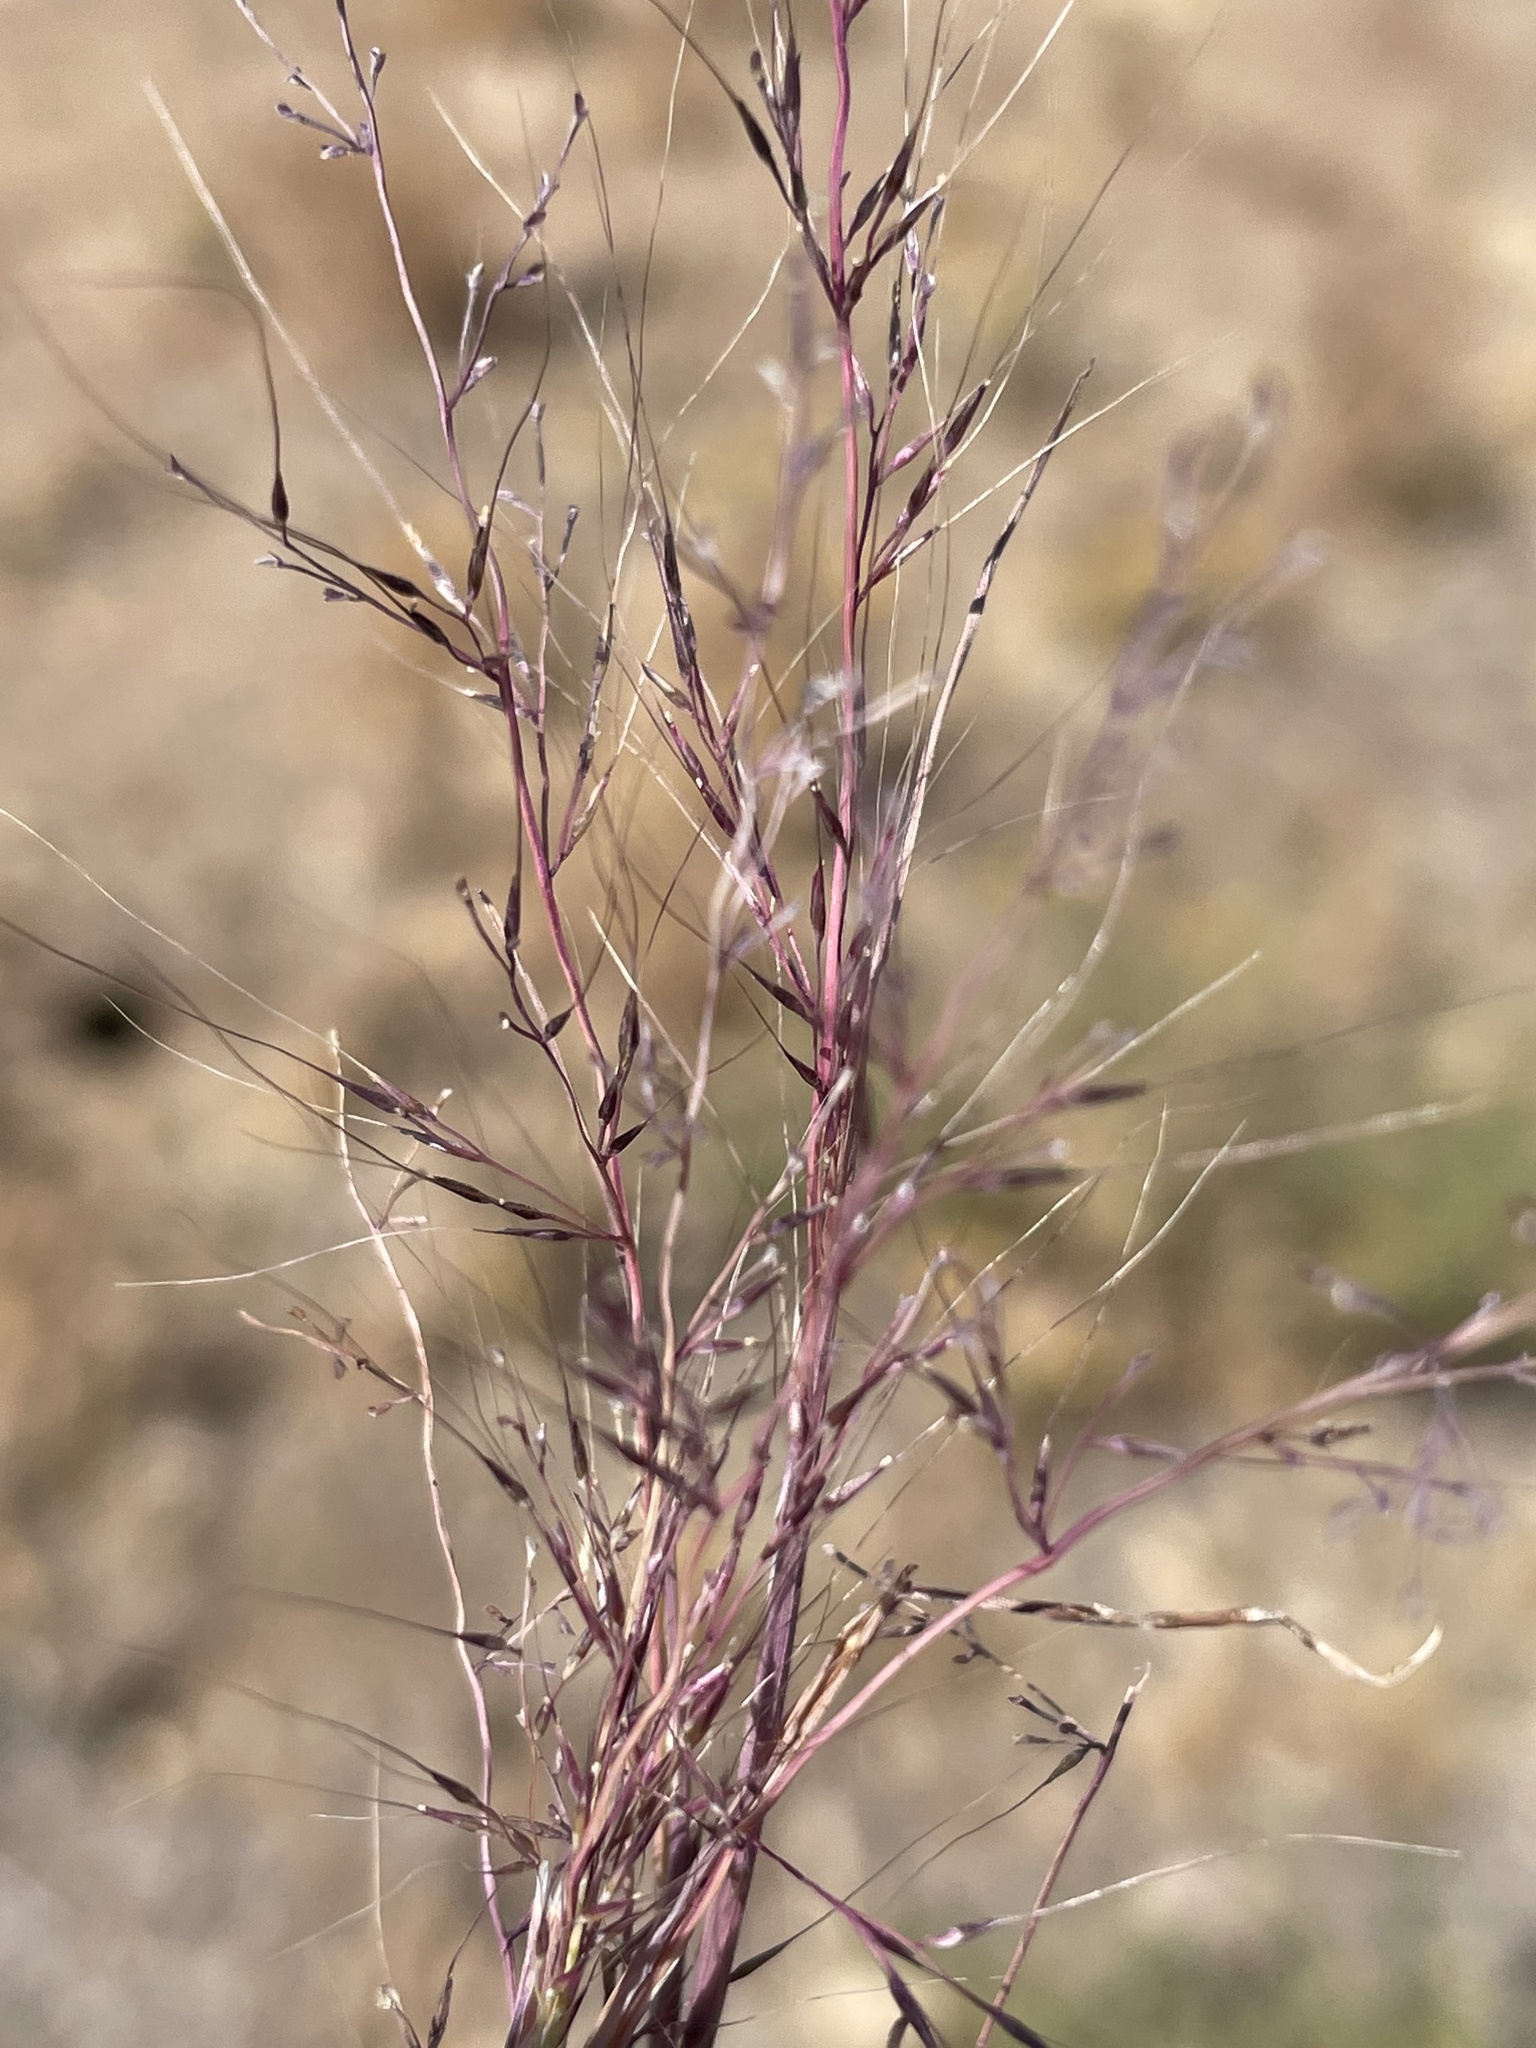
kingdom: Plantae
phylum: Tracheophyta
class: Liliopsida
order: Poales
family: Poaceae
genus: Muhlenbergia
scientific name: Muhlenbergia microsperma
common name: Littleseed muhly
